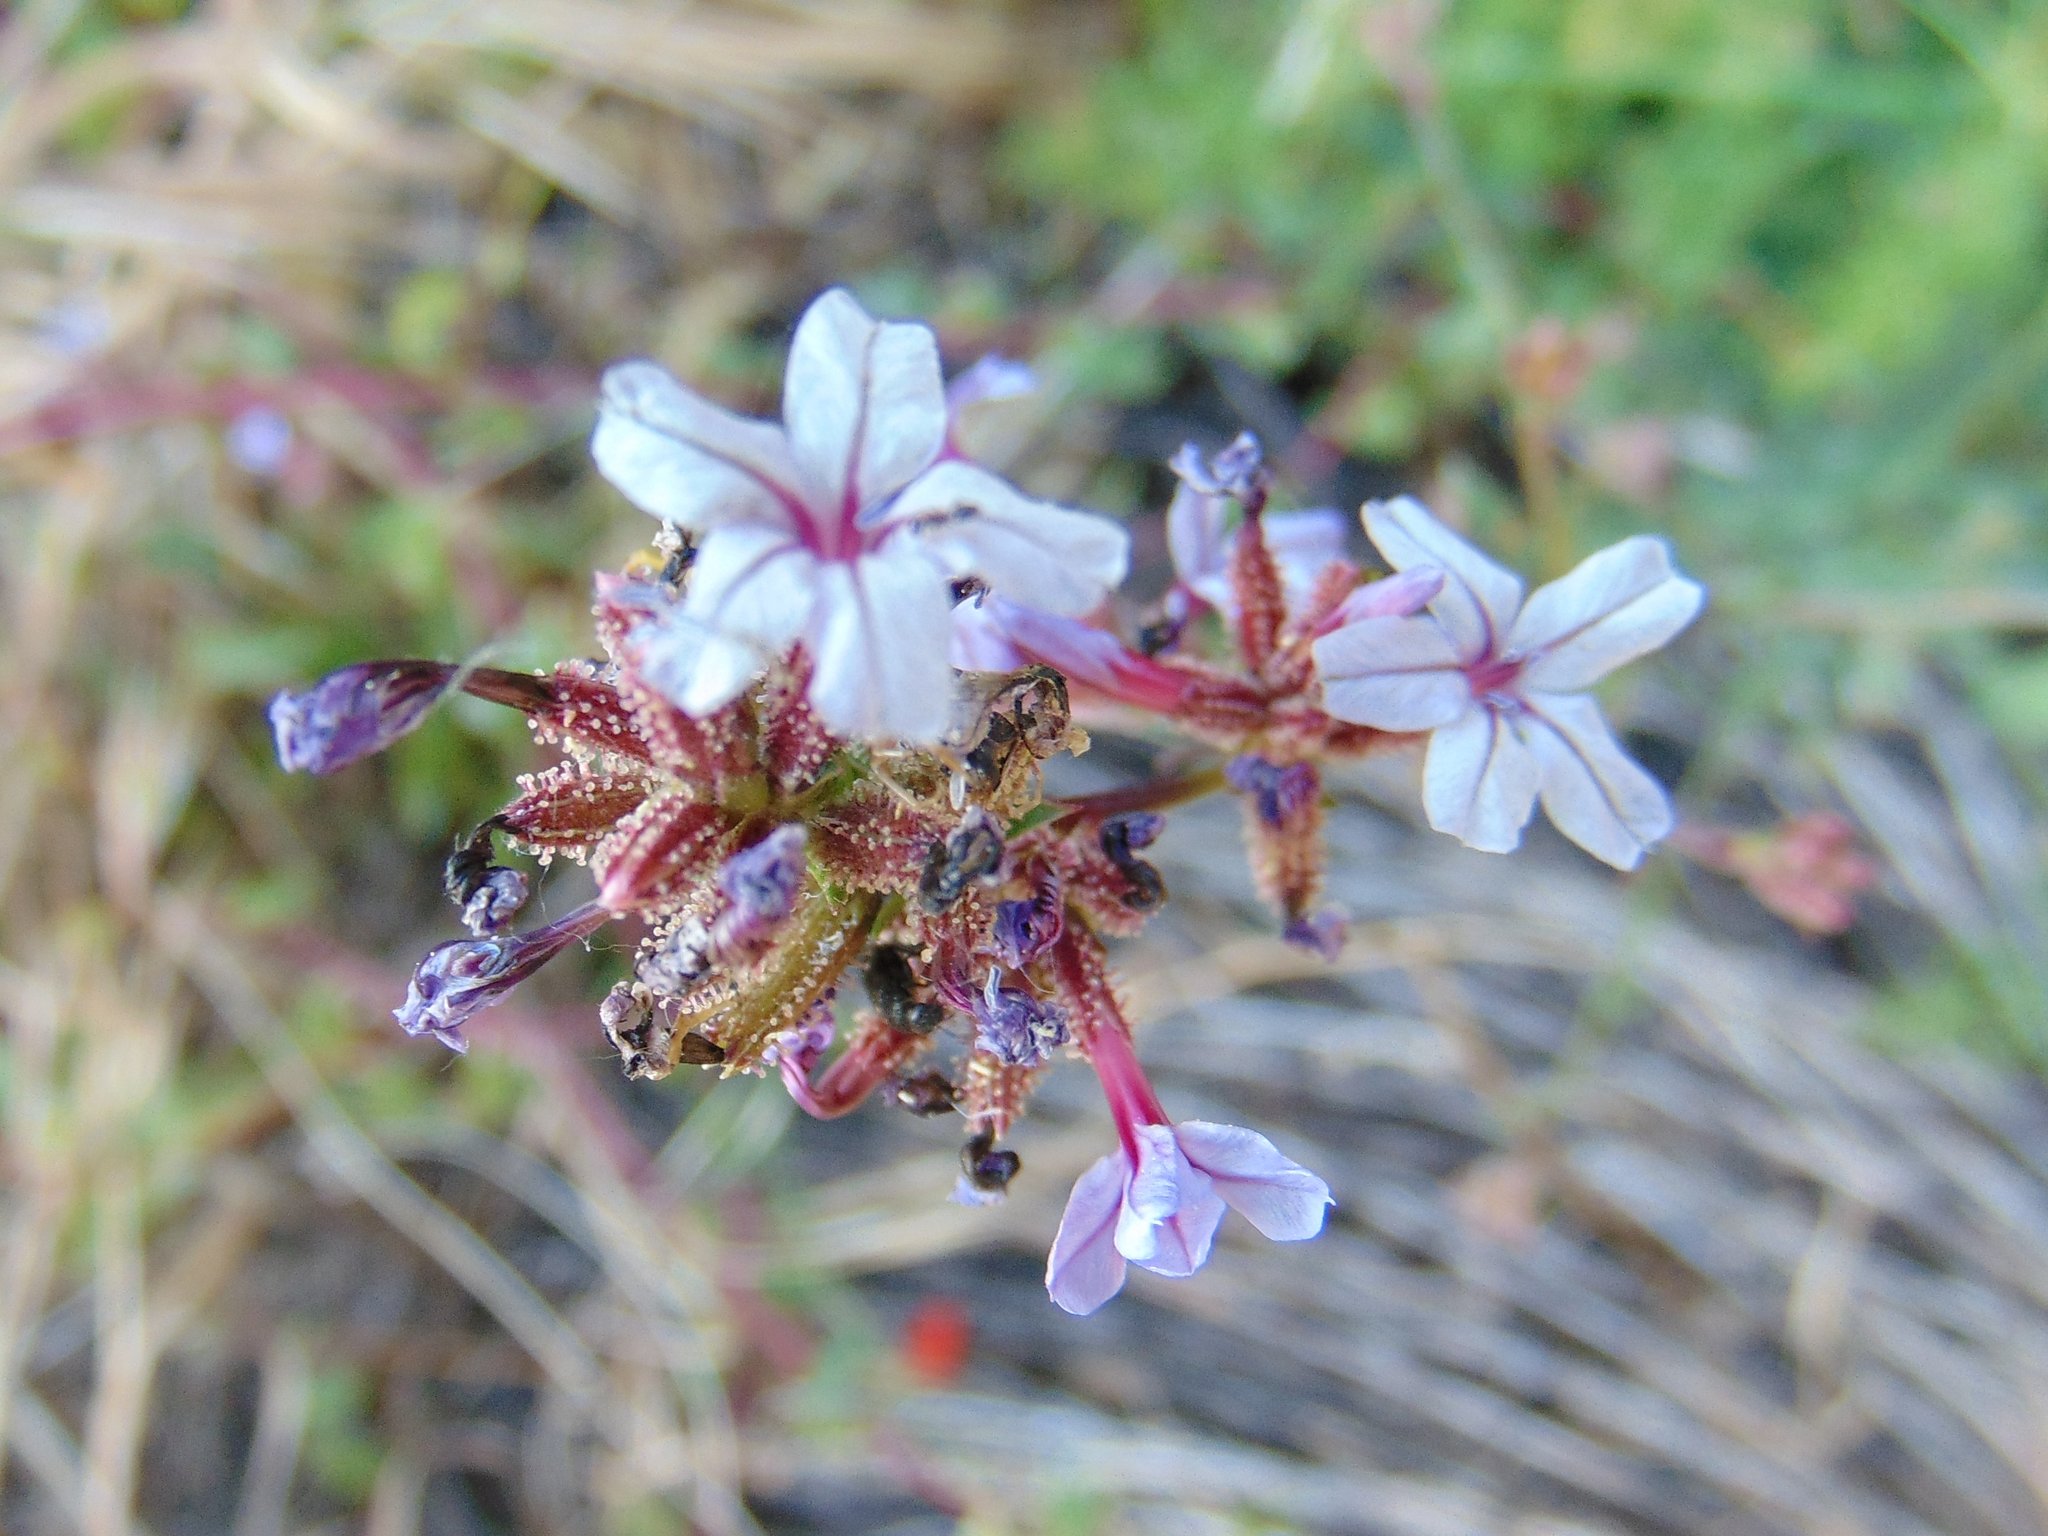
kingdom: Plantae
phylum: Tracheophyta
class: Magnoliopsida
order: Caryophyllales
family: Plumbaginaceae
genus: Plumbago
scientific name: Plumbago europaea
